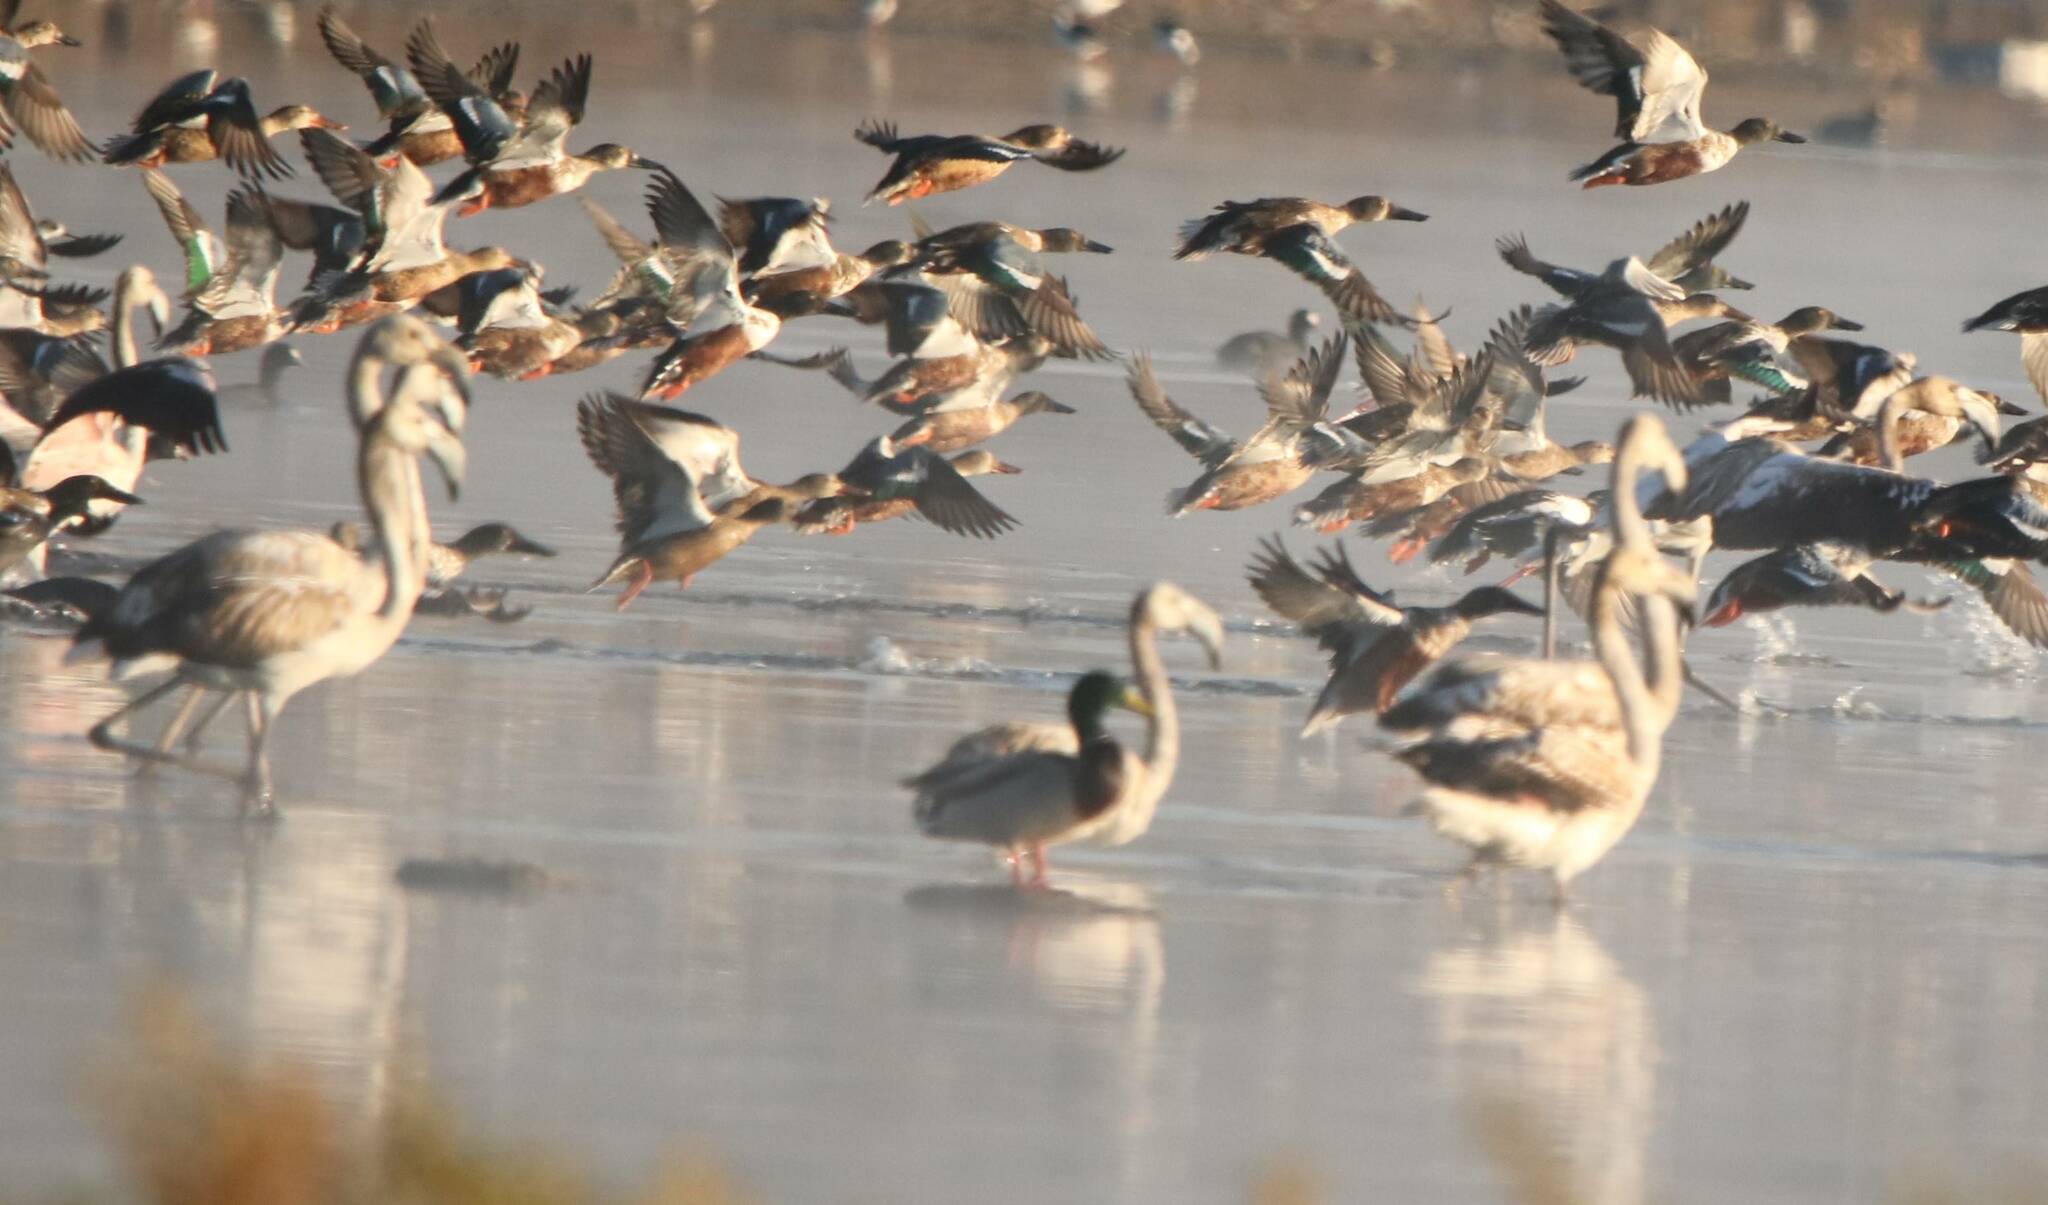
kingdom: Animalia
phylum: Chordata
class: Aves
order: Anseriformes
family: Anatidae
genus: Spatula
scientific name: Spatula clypeata
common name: Northern shoveler
